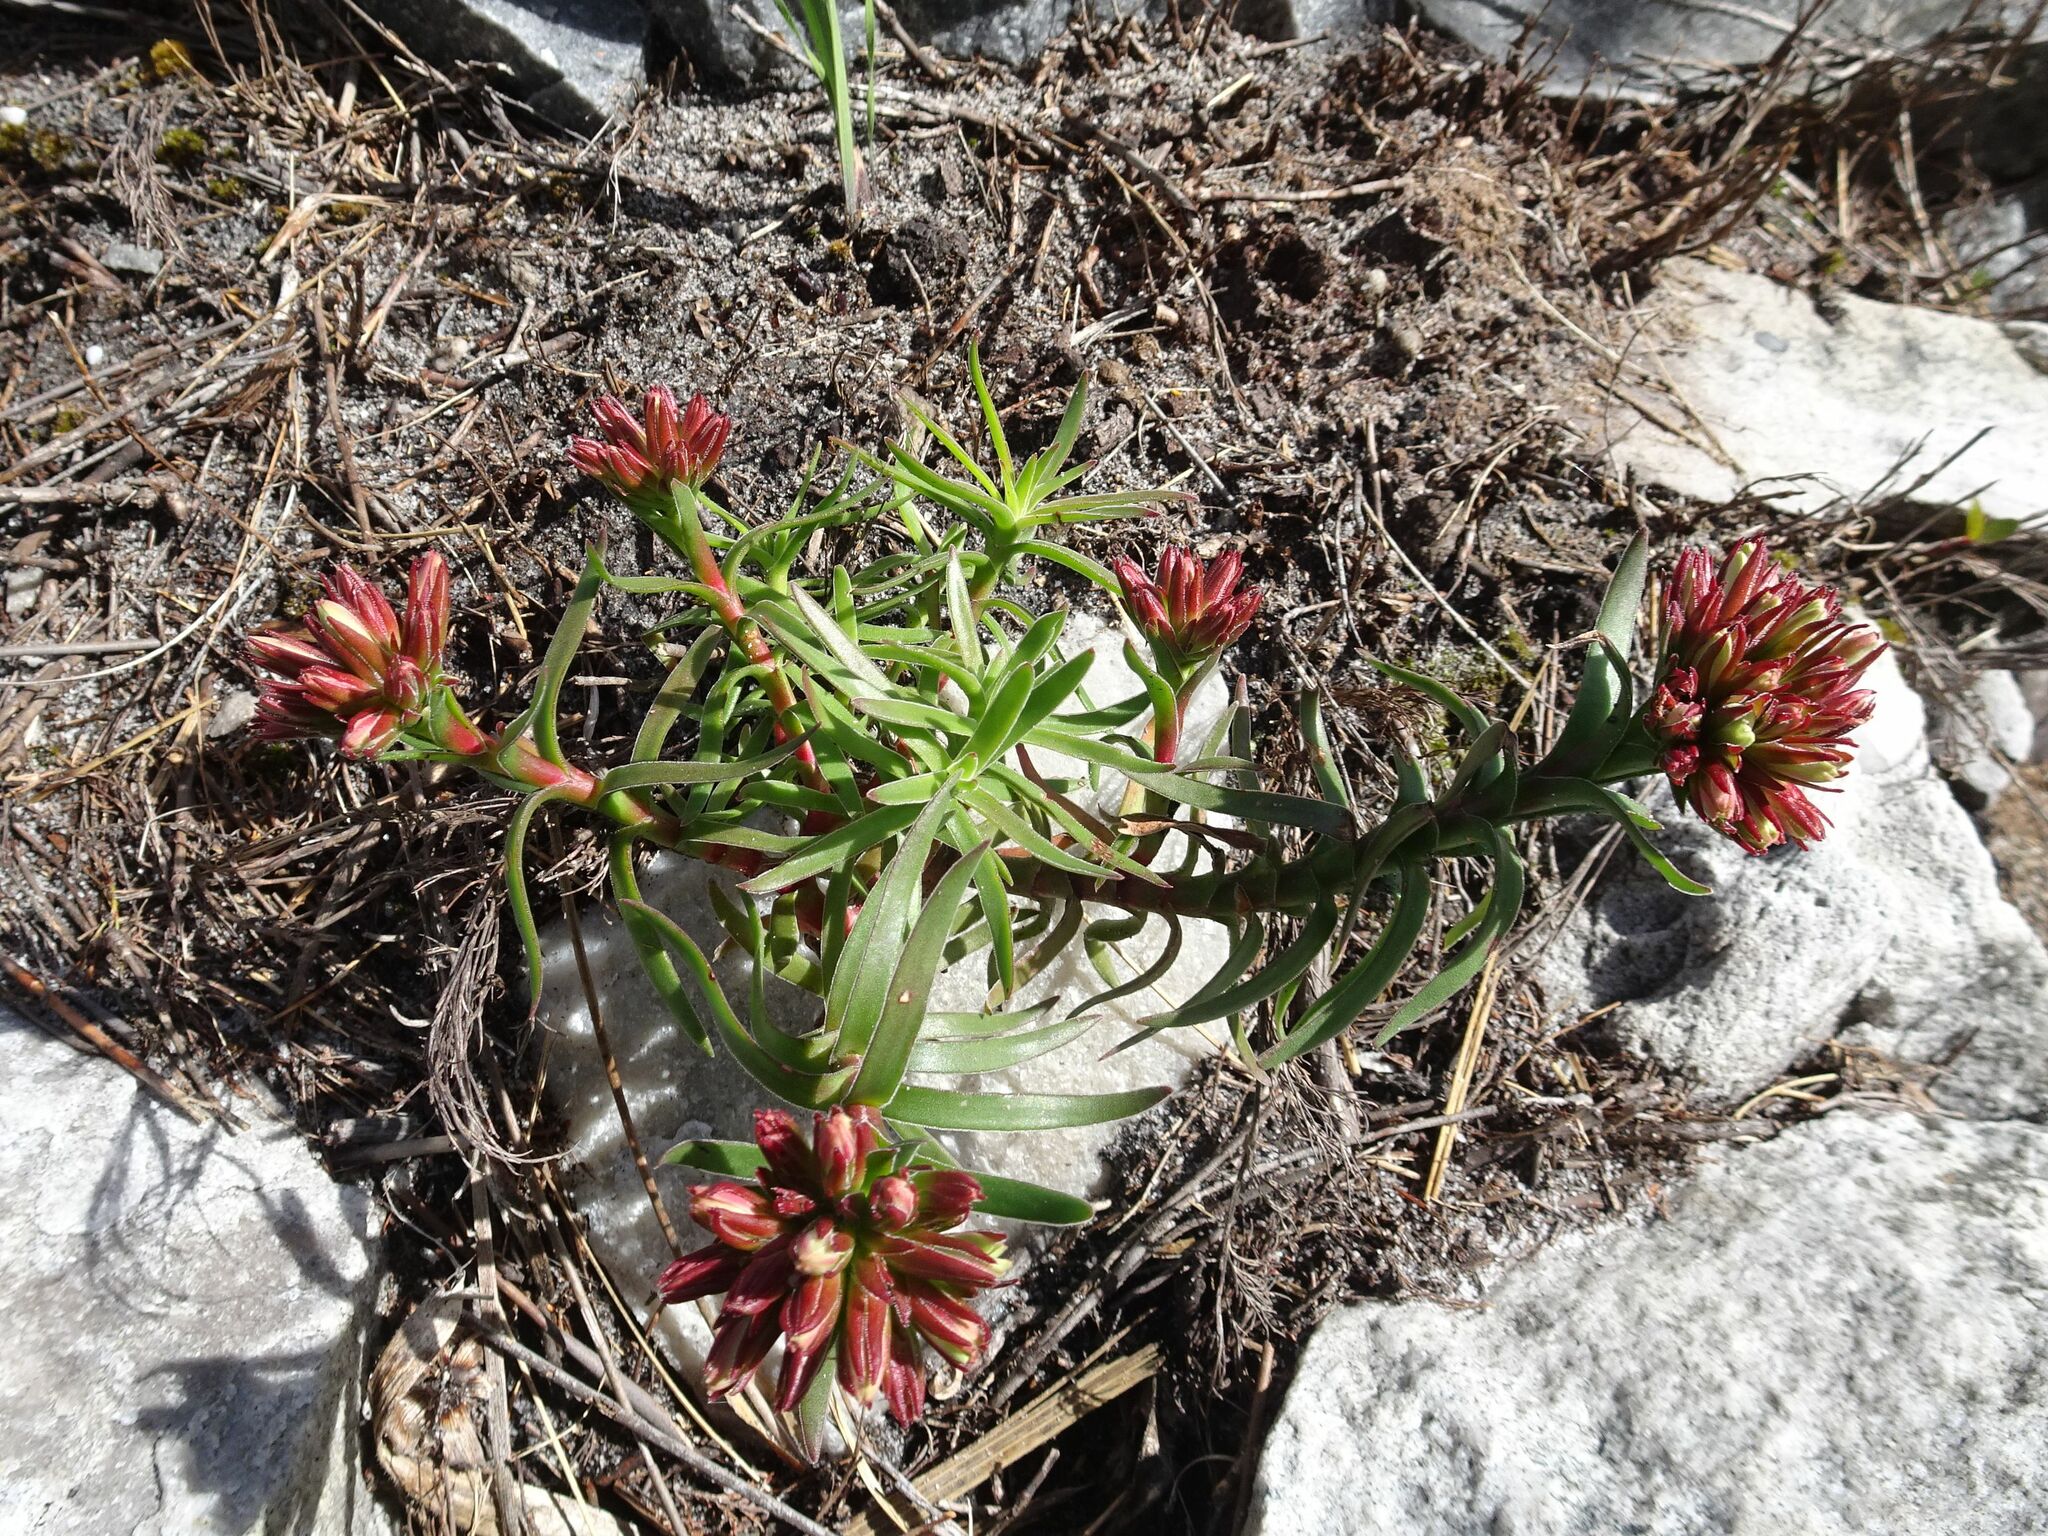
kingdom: Plantae
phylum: Tracheophyta
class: Magnoliopsida
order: Saxifragales
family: Crassulaceae
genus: Crassula
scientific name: Crassula fascicularis
